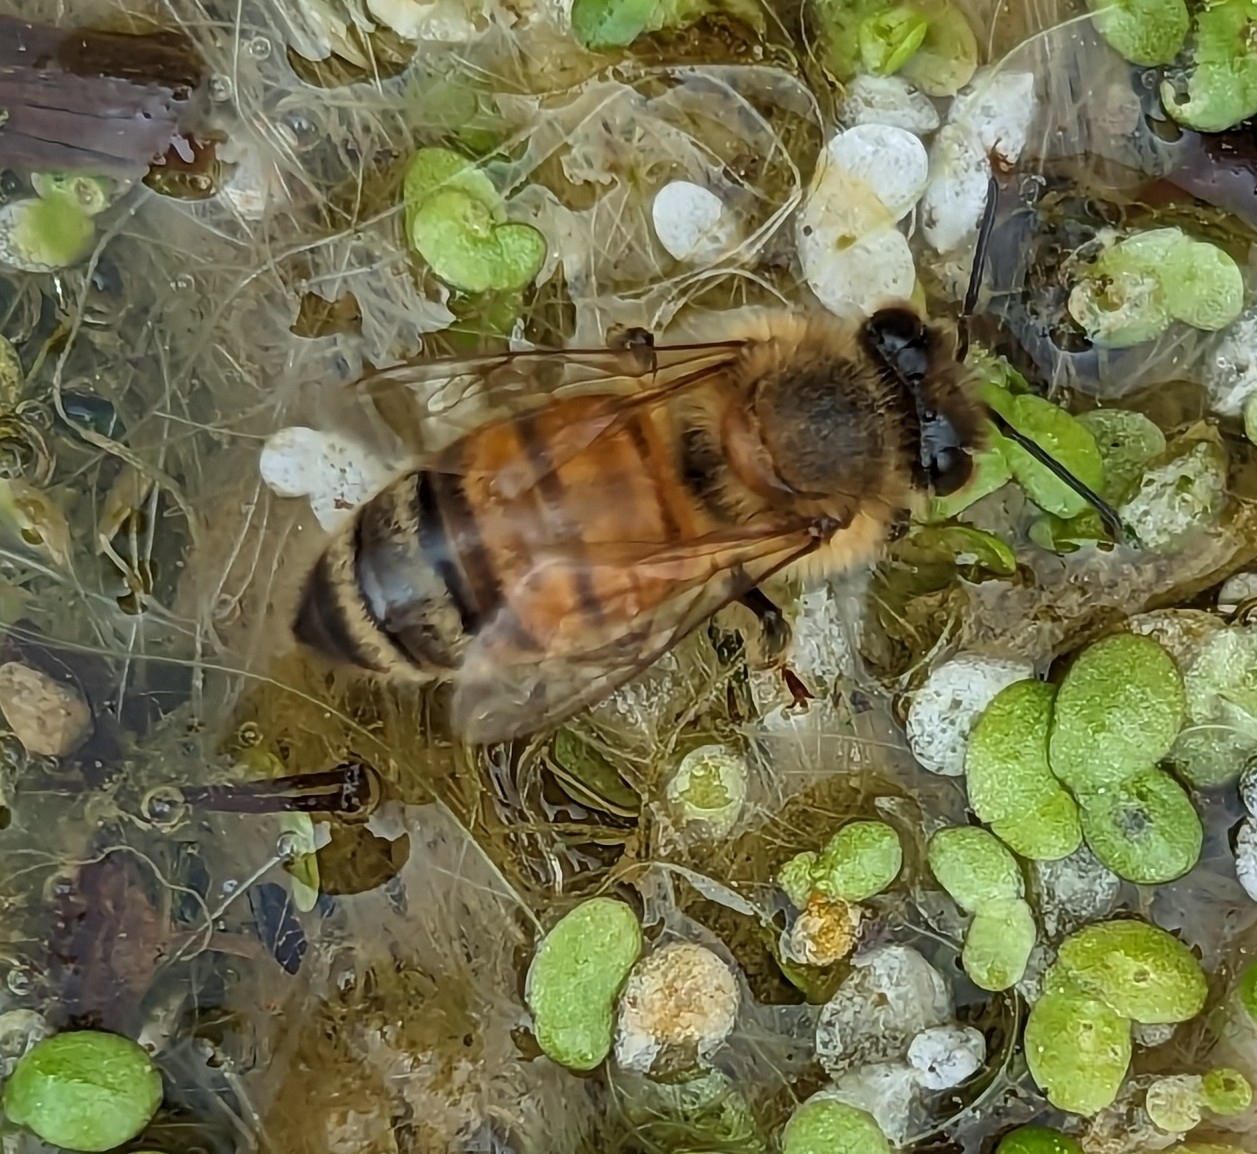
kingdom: Animalia
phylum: Arthropoda
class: Insecta
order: Hymenoptera
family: Apidae
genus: Apis
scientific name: Apis mellifera
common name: Honey bee
